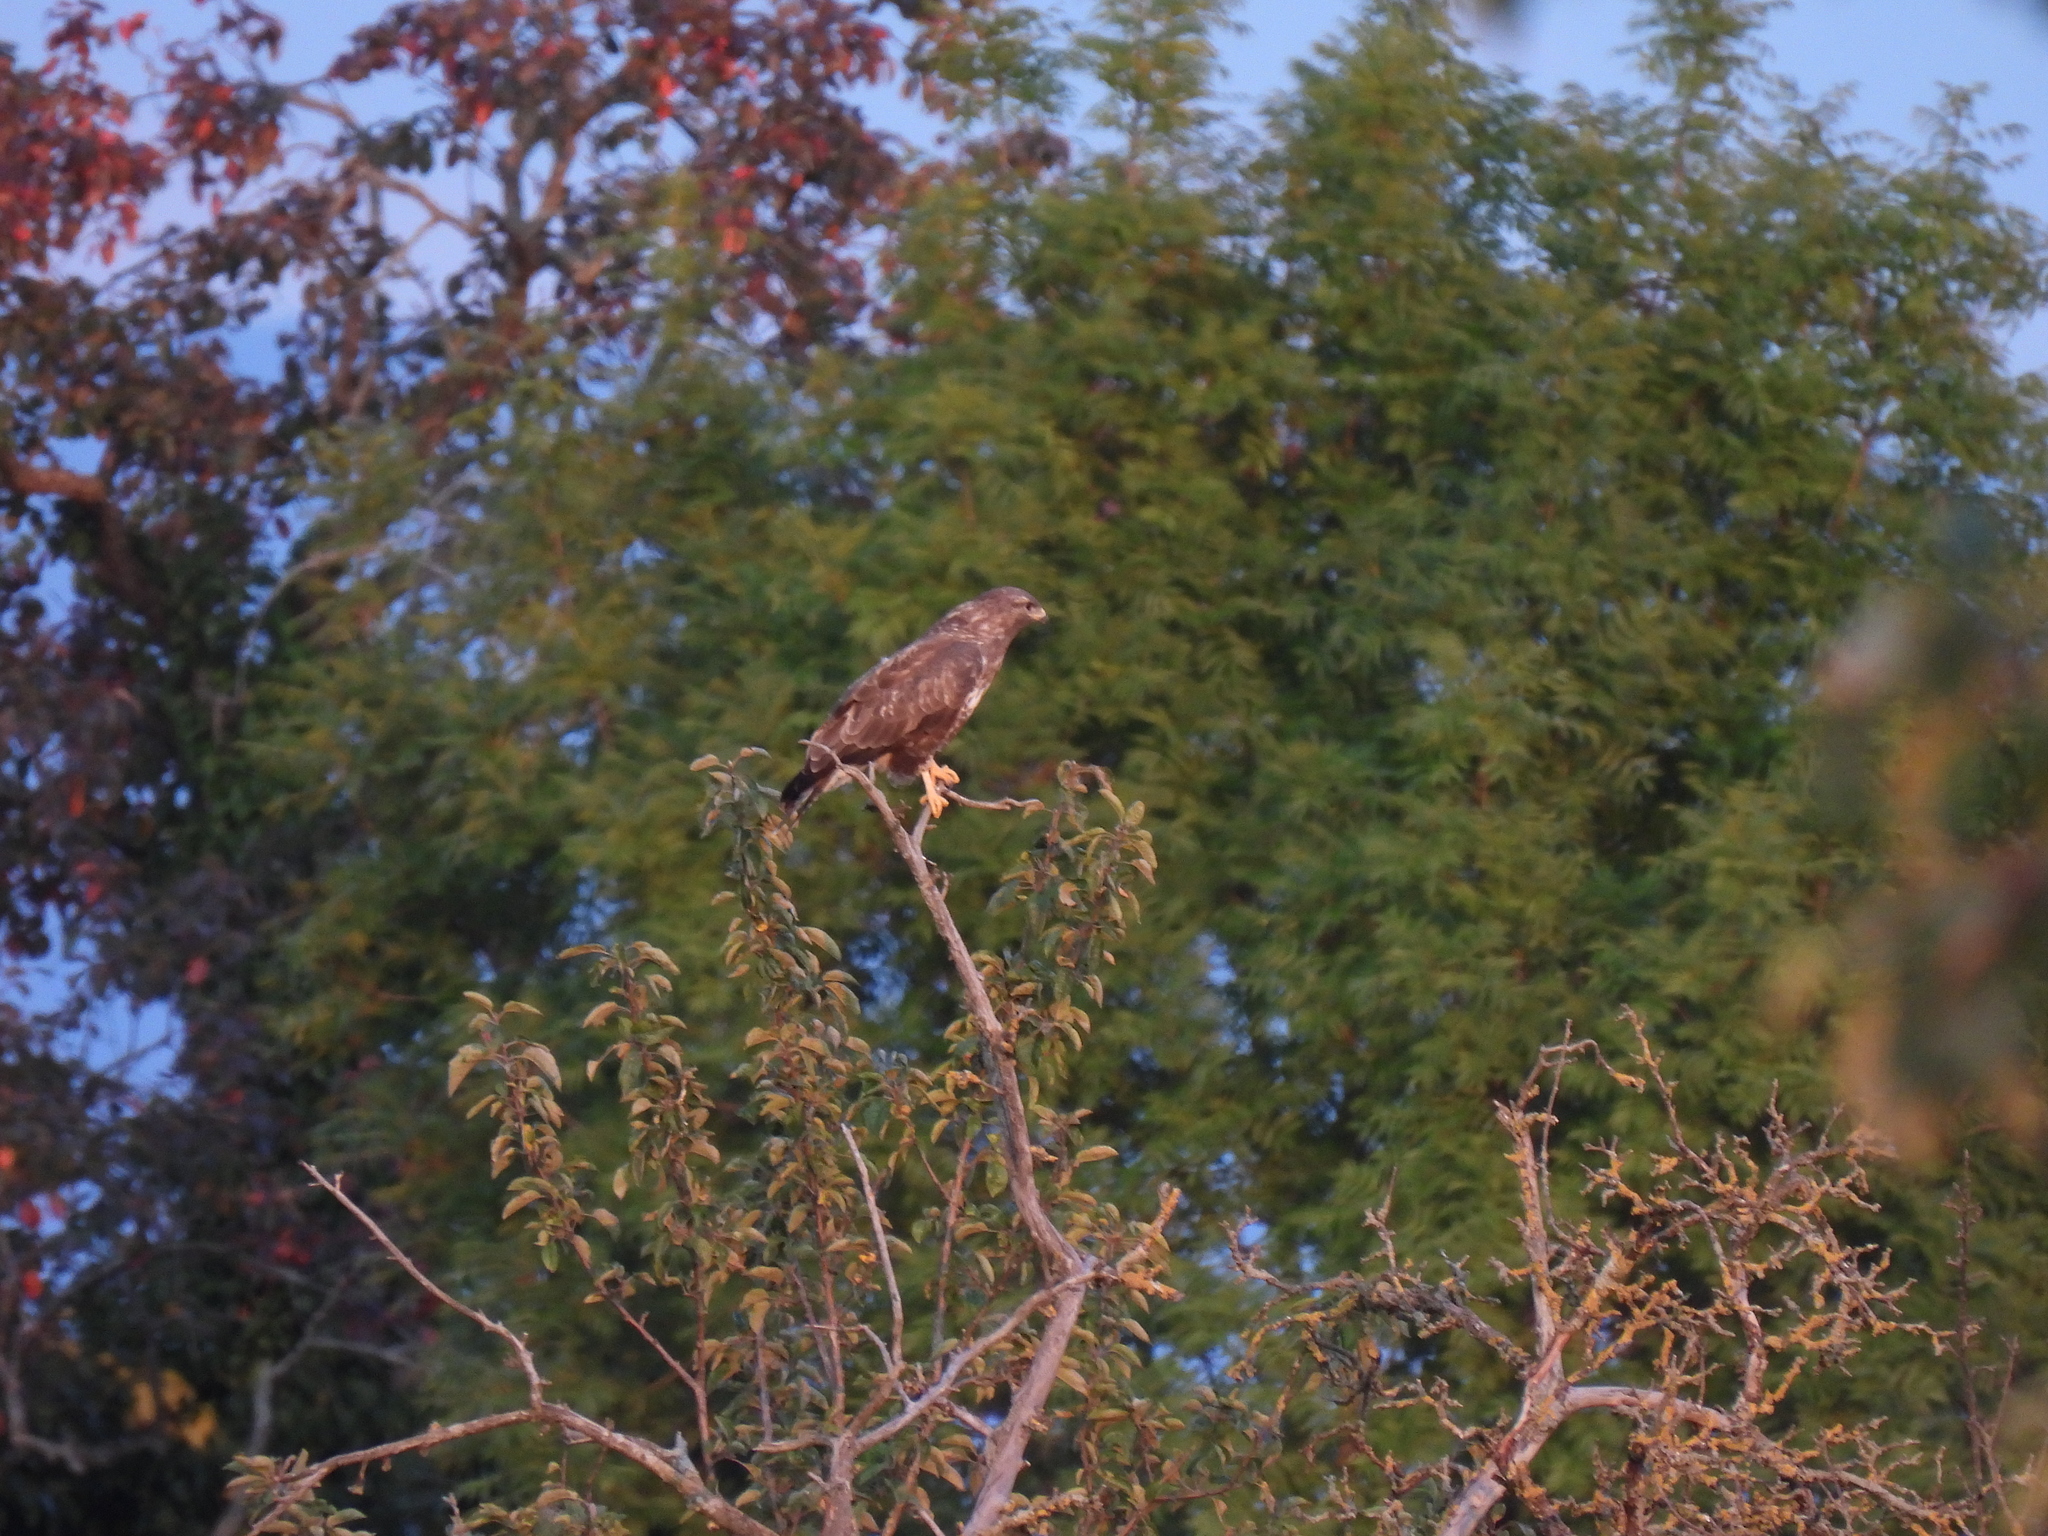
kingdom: Animalia
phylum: Chordata
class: Aves
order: Accipitriformes
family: Accipitridae
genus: Buteo
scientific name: Buteo buteo
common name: Common buzzard
